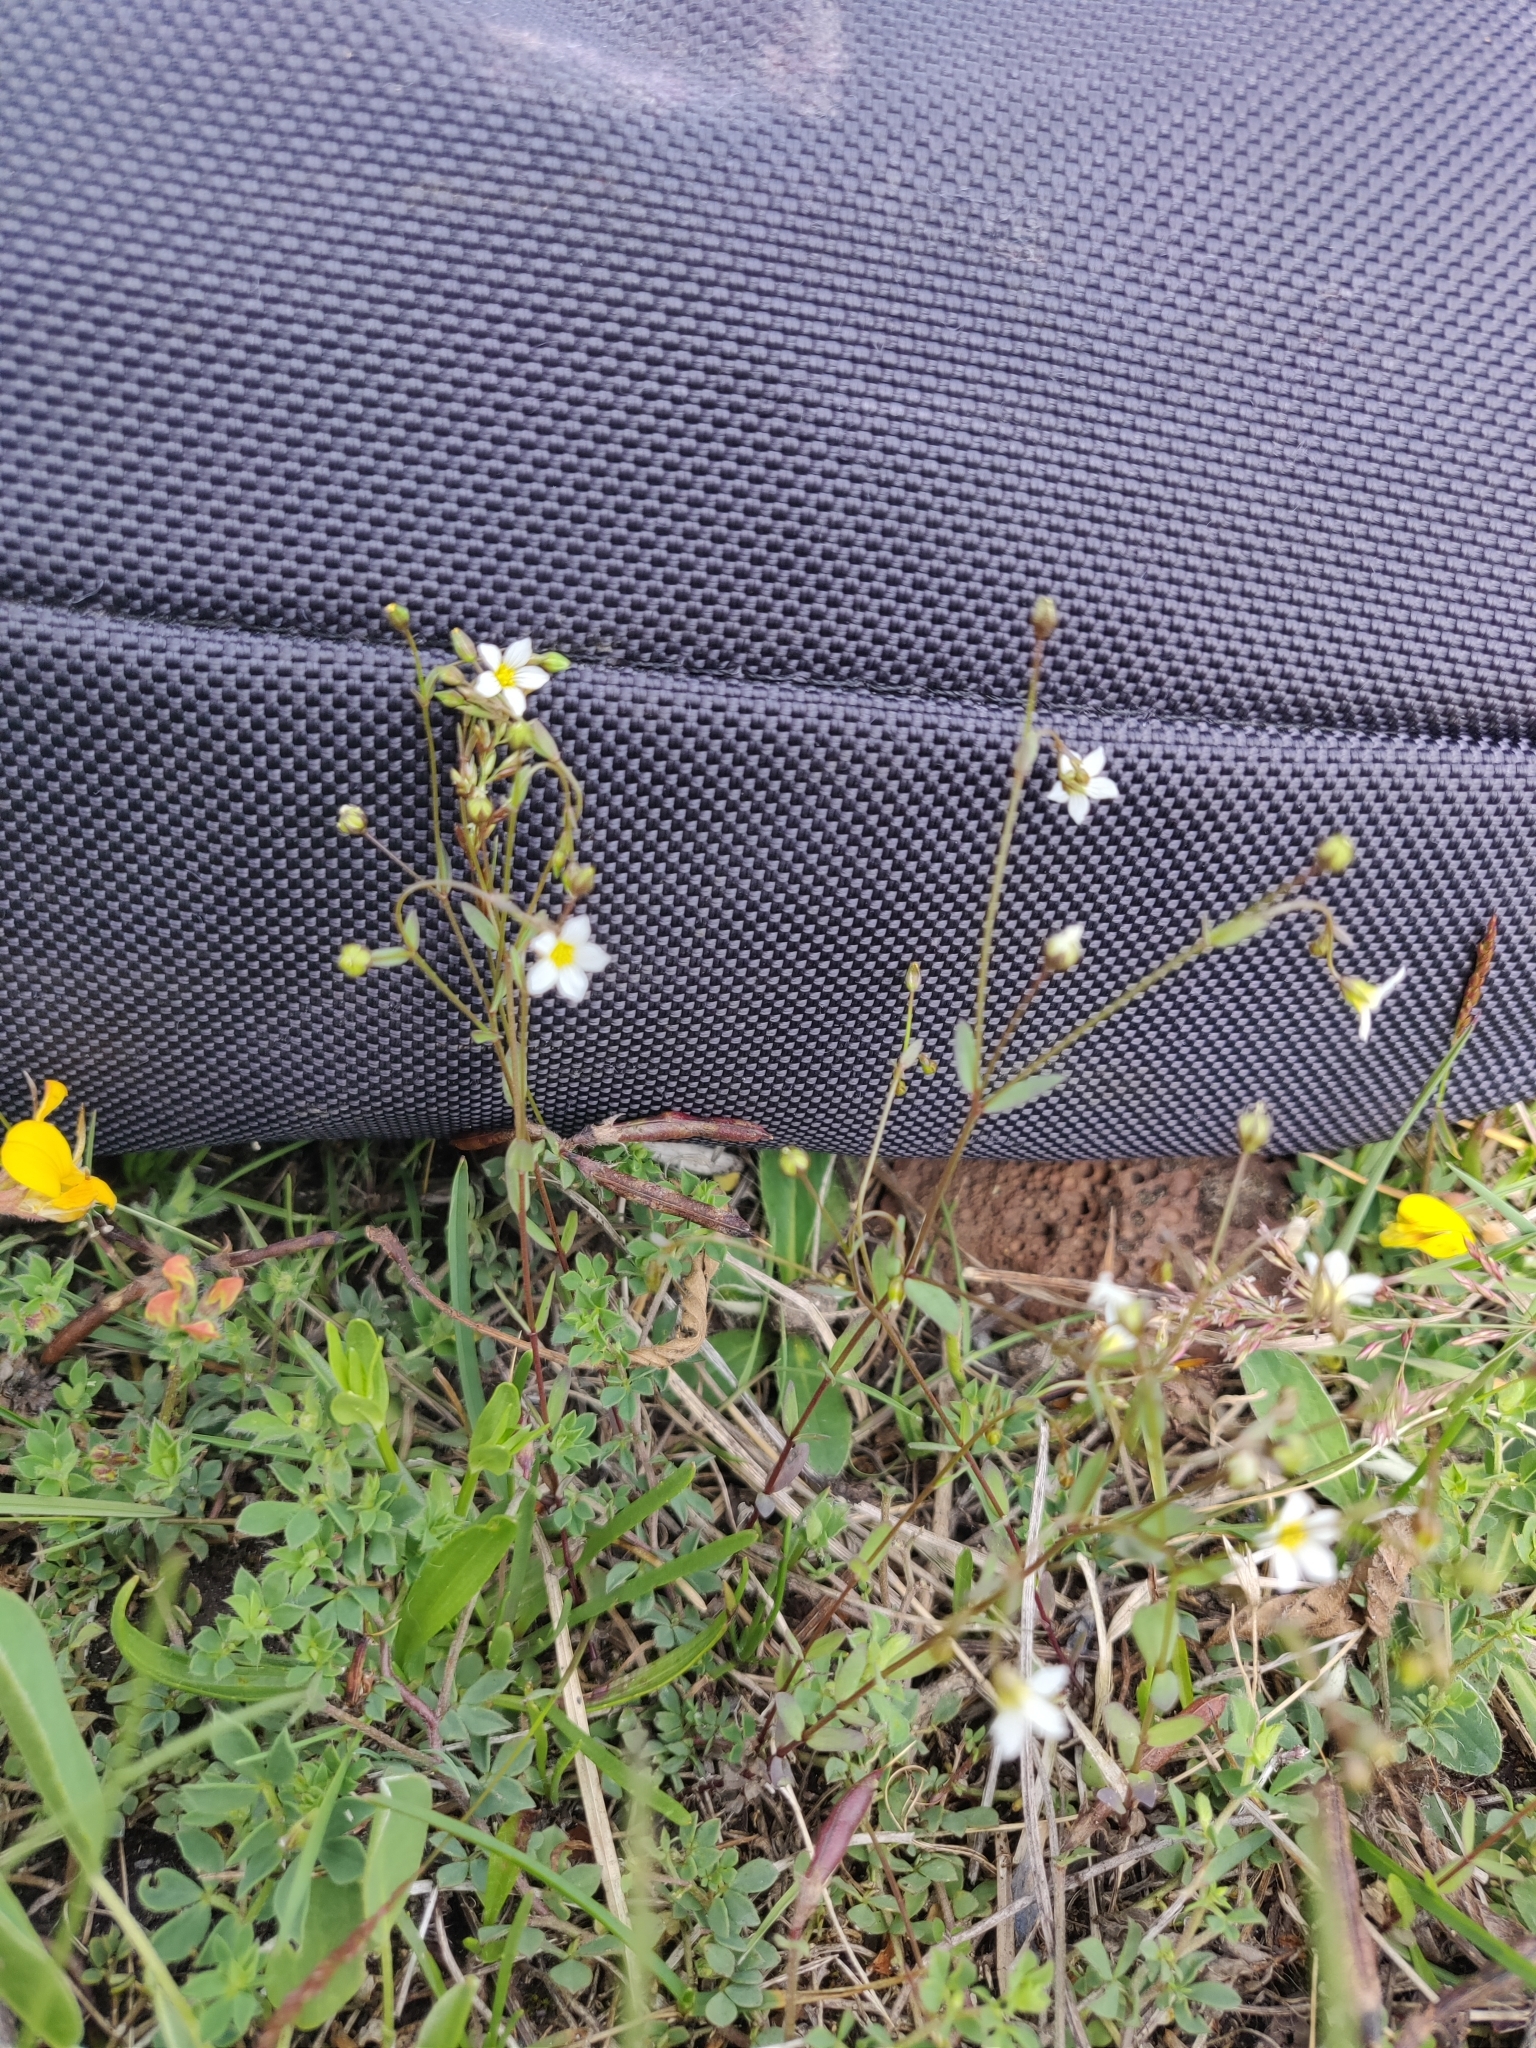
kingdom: Plantae
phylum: Tracheophyta
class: Magnoliopsida
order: Malpighiales
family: Linaceae
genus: Linum
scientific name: Linum catharticum
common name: Fairy flax
